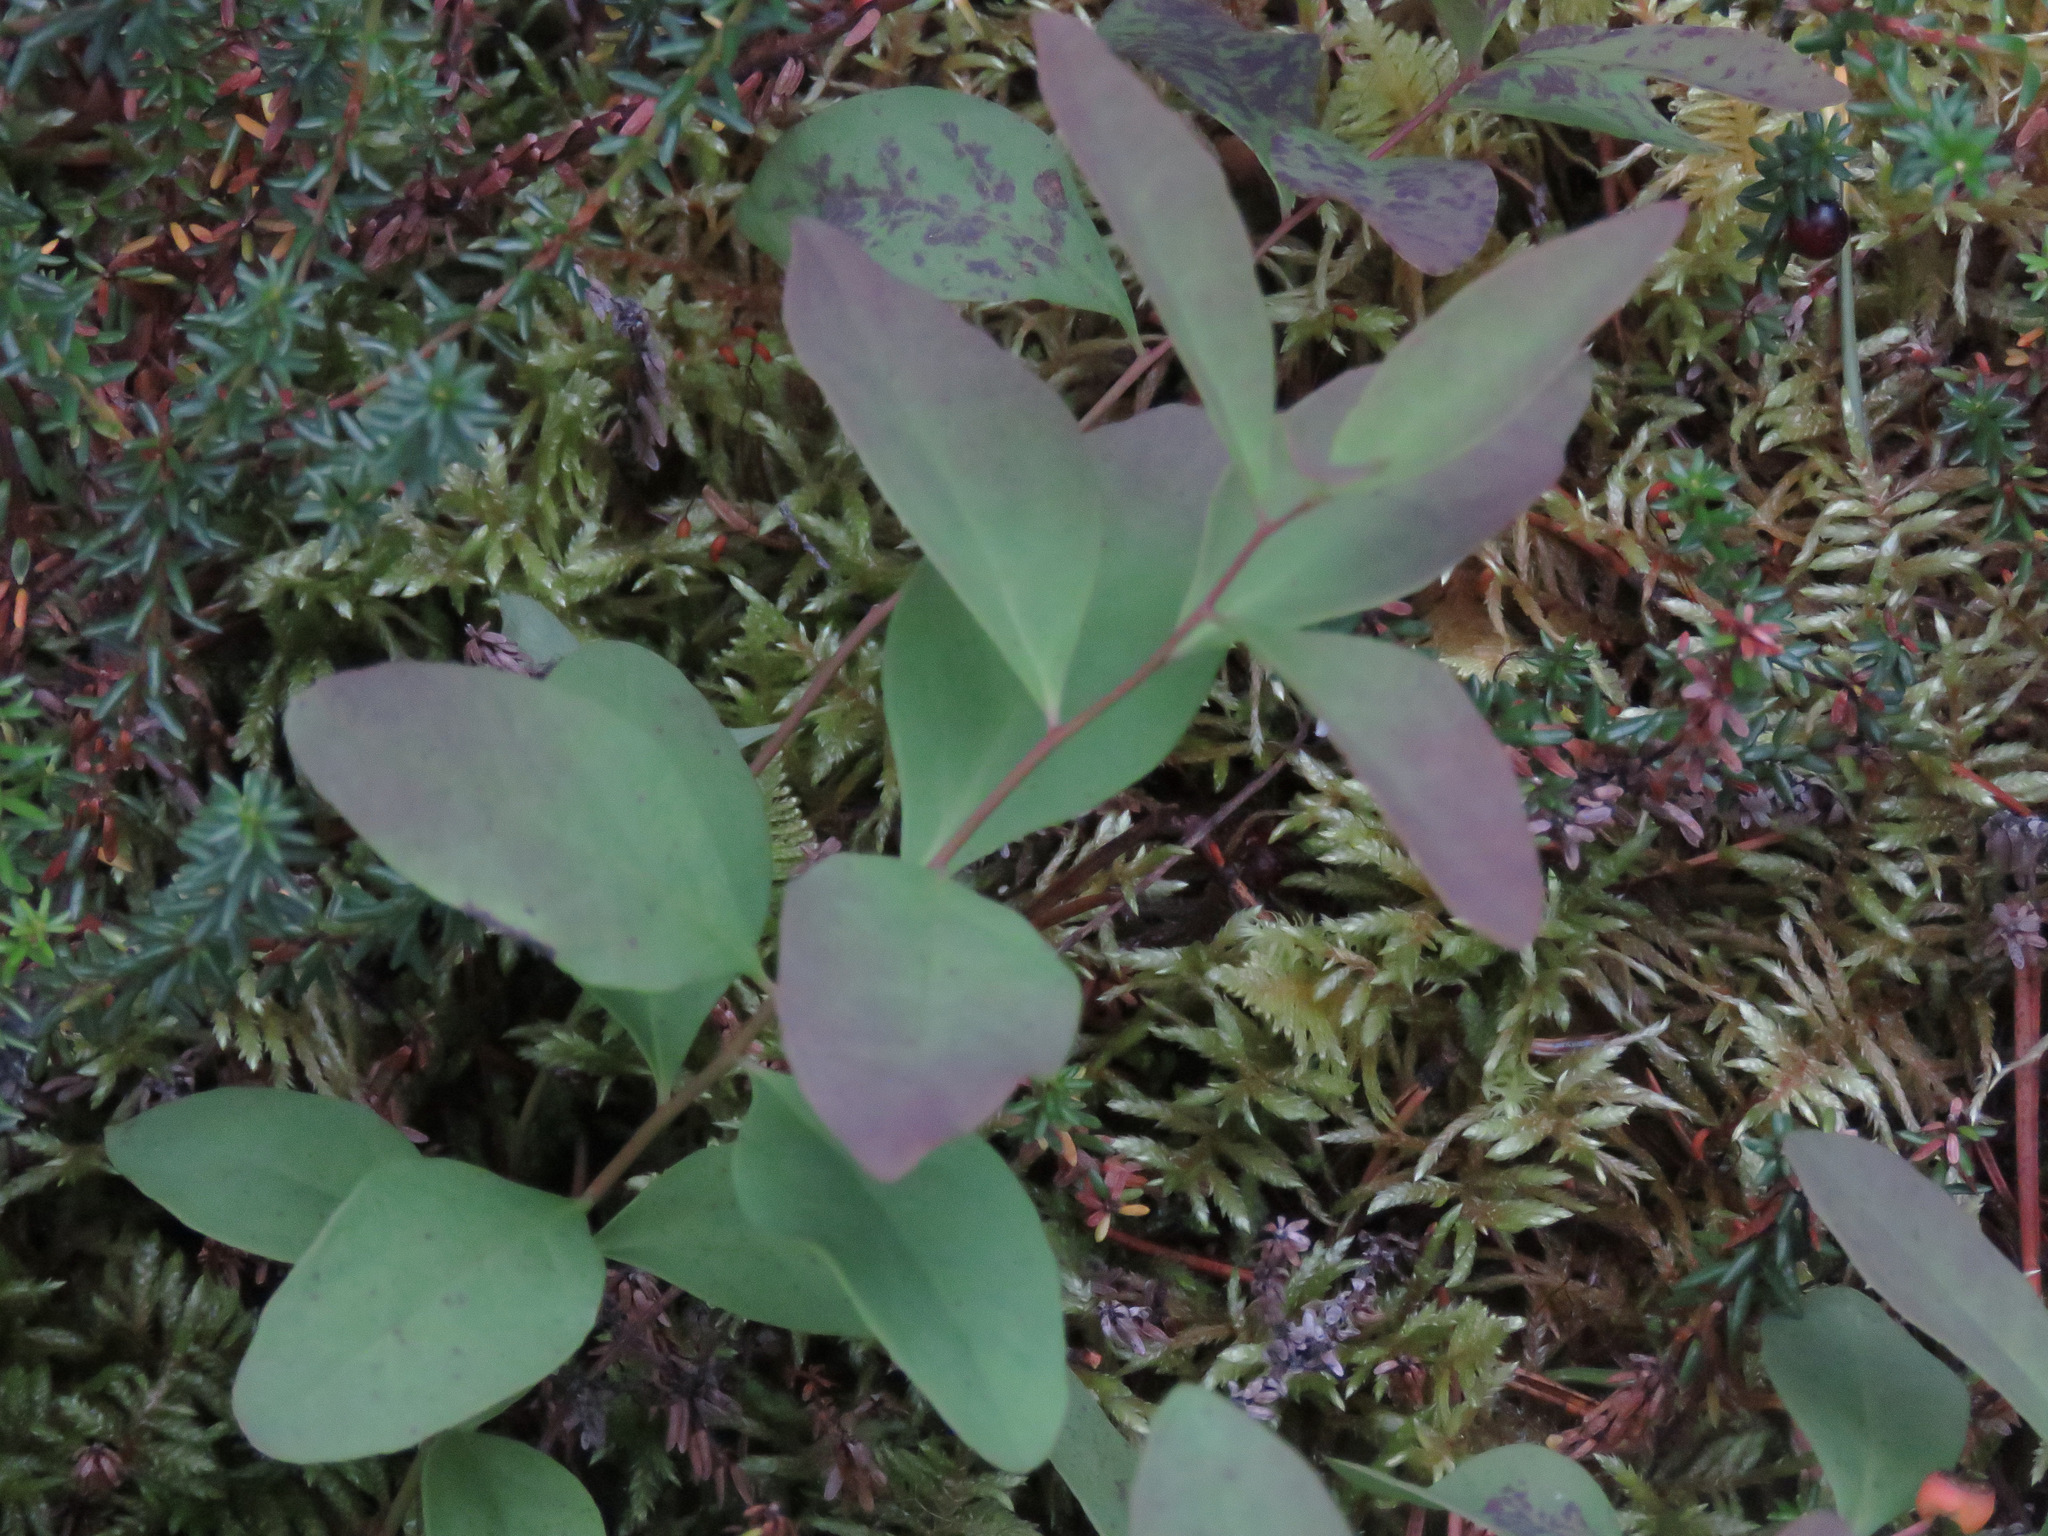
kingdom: Plantae
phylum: Tracheophyta
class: Magnoliopsida
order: Santalales
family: Comandraceae
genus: Geocaulon
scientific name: Geocaulon lividum
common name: Earthberry
